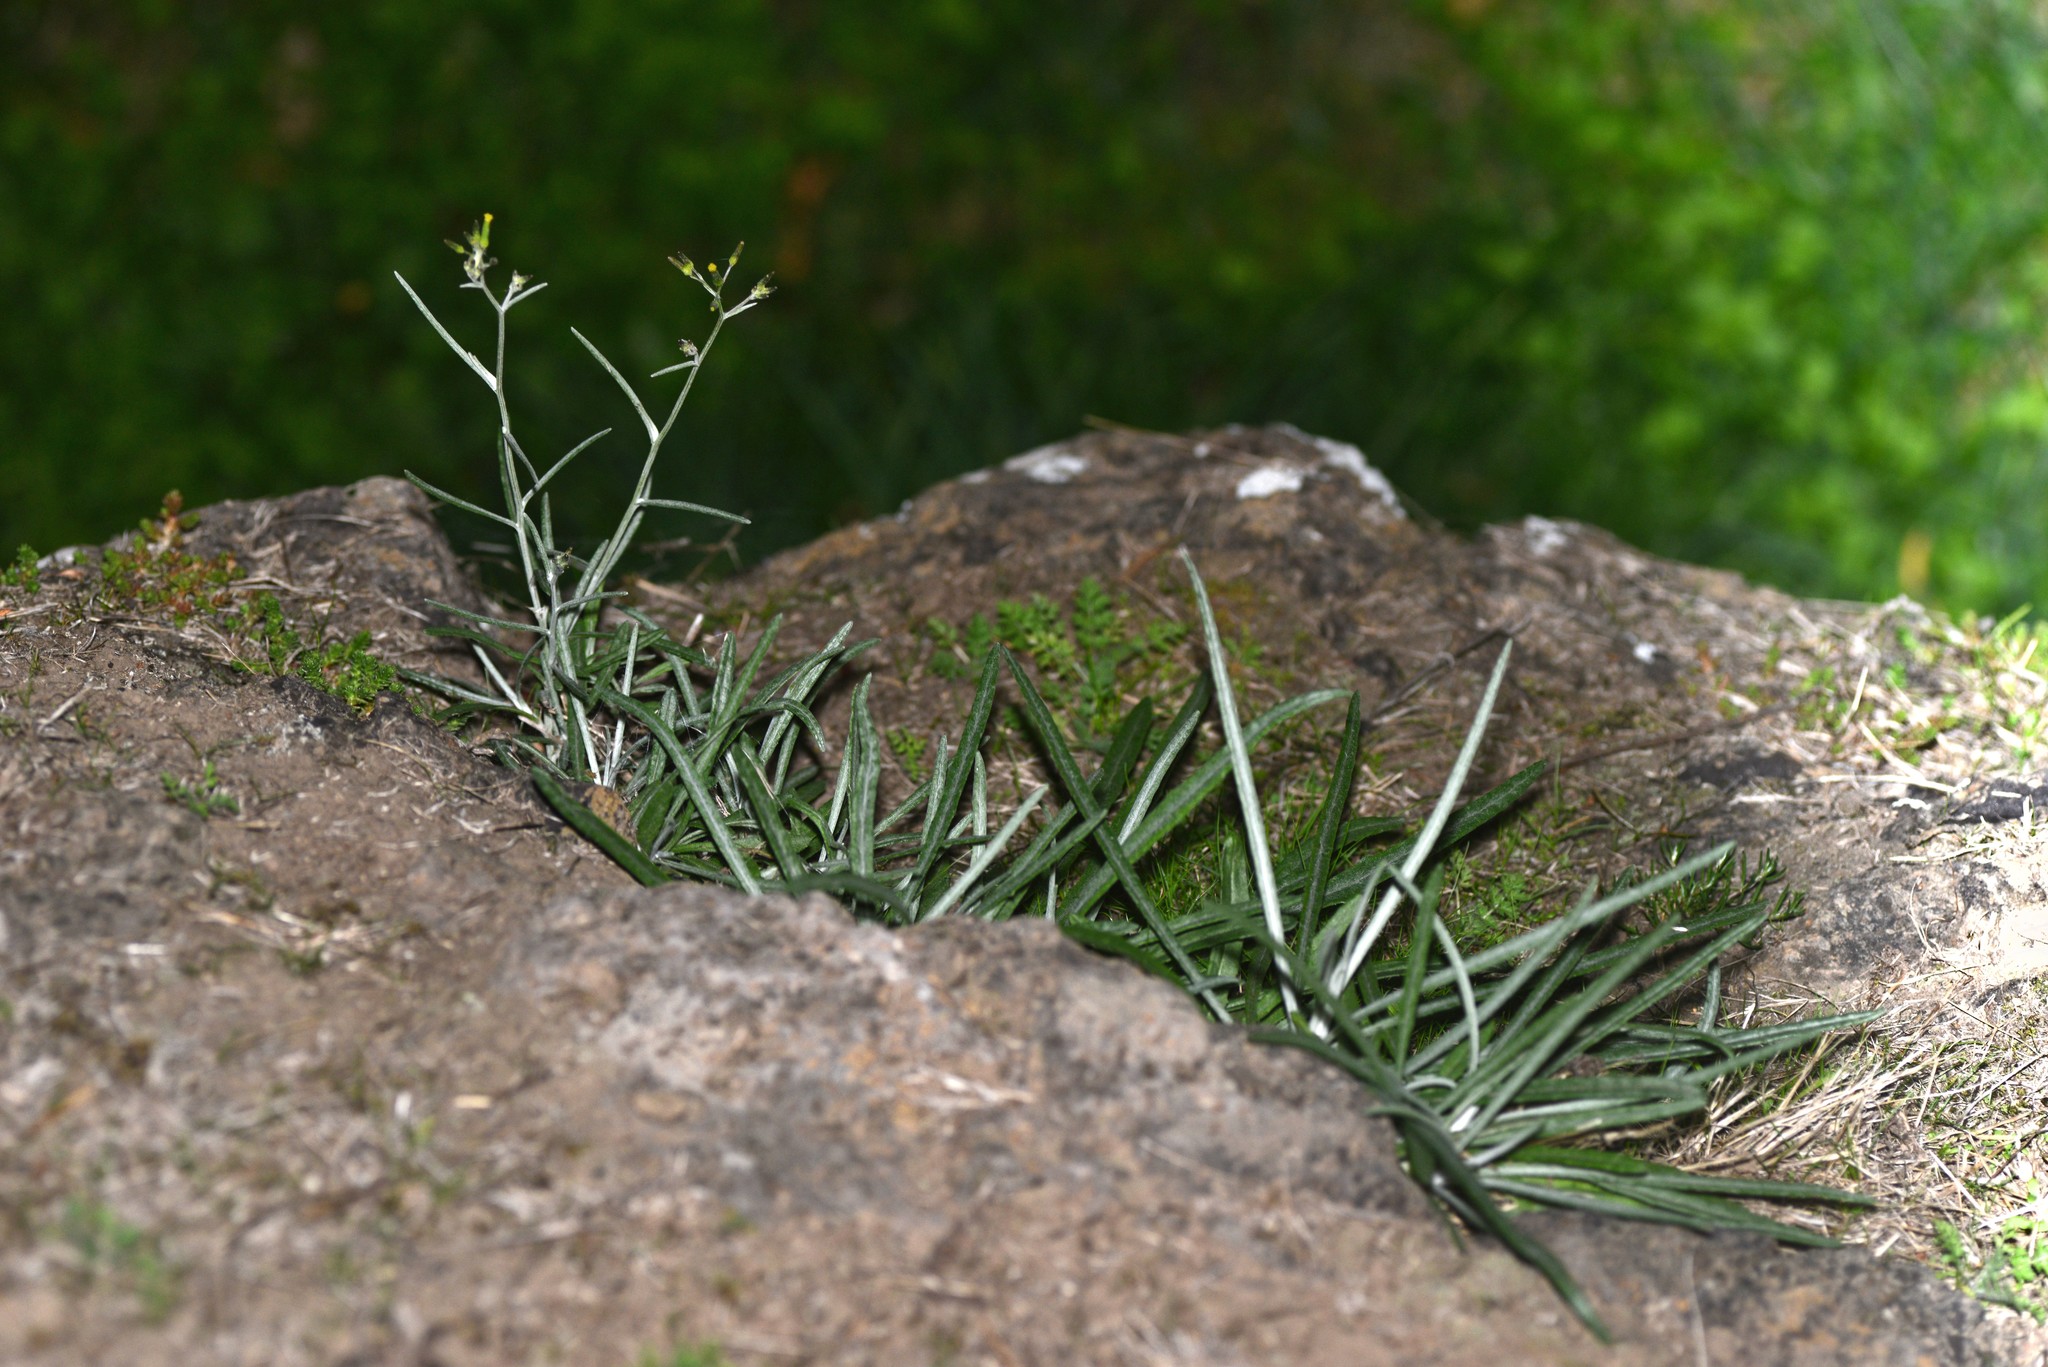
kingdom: Plantae
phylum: Tracheophyta
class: Magnoliopsida
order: Asterales
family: Asteraceae
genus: Senecio
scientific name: Senecio quadridentatus
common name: Cotton fireweed
